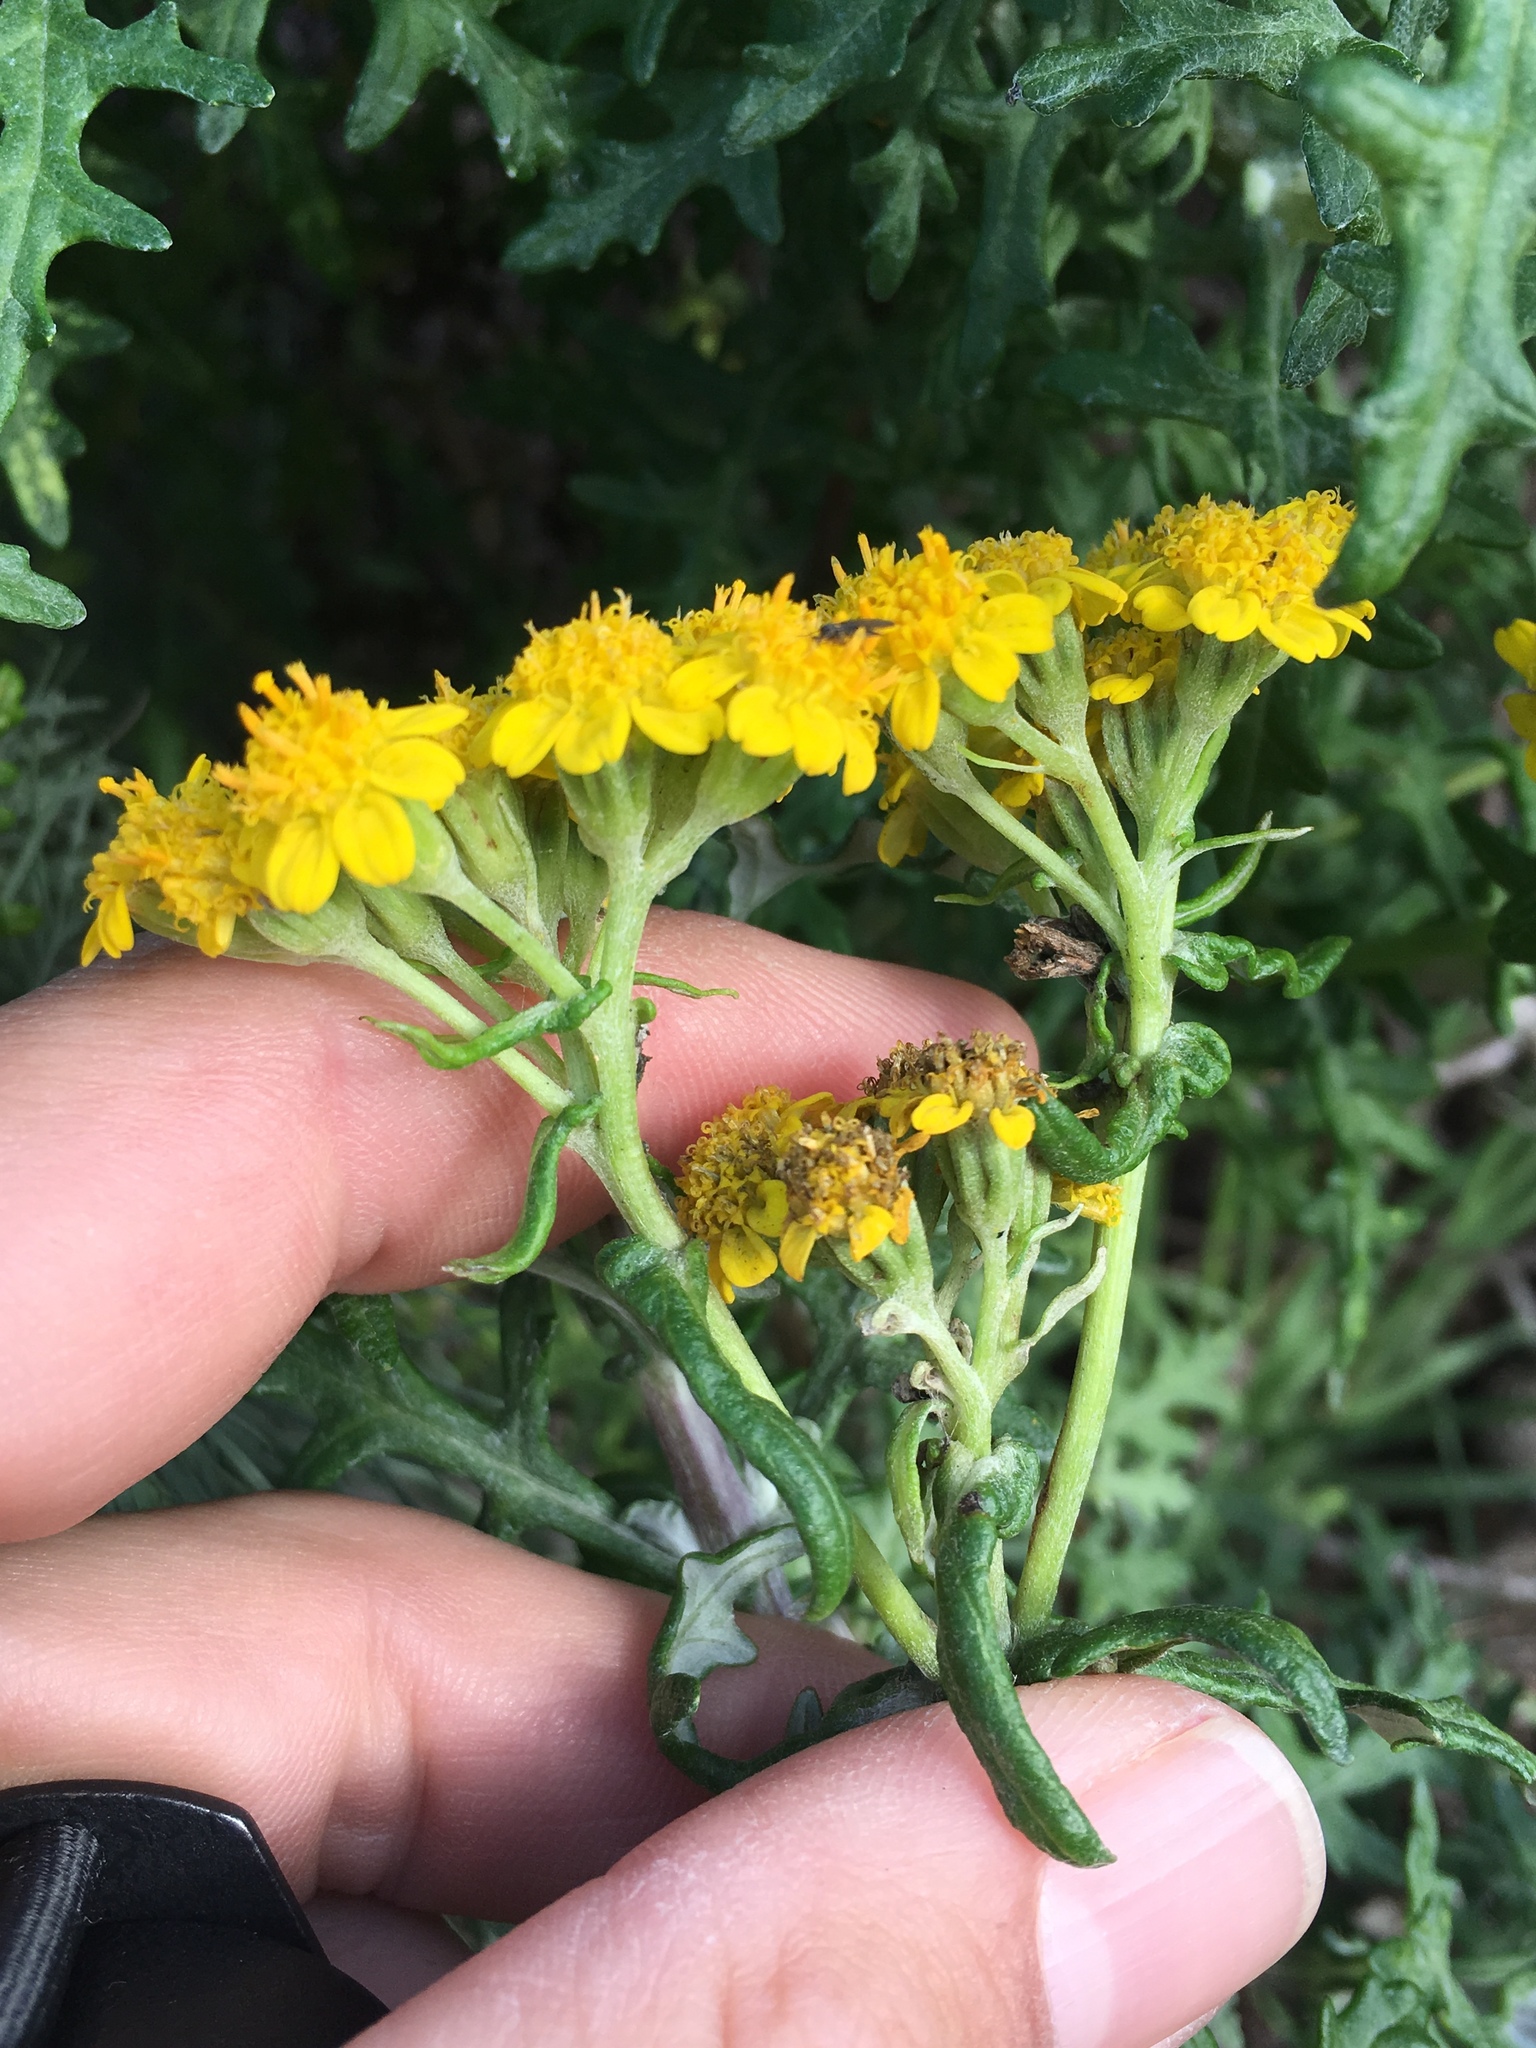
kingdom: Plantae
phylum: Tracheophyta
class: Magnoliopsida
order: Asterales
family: Asteraceae
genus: Eriophyllum
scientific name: Eriophyllum staechadifolium
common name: Lizardtail
